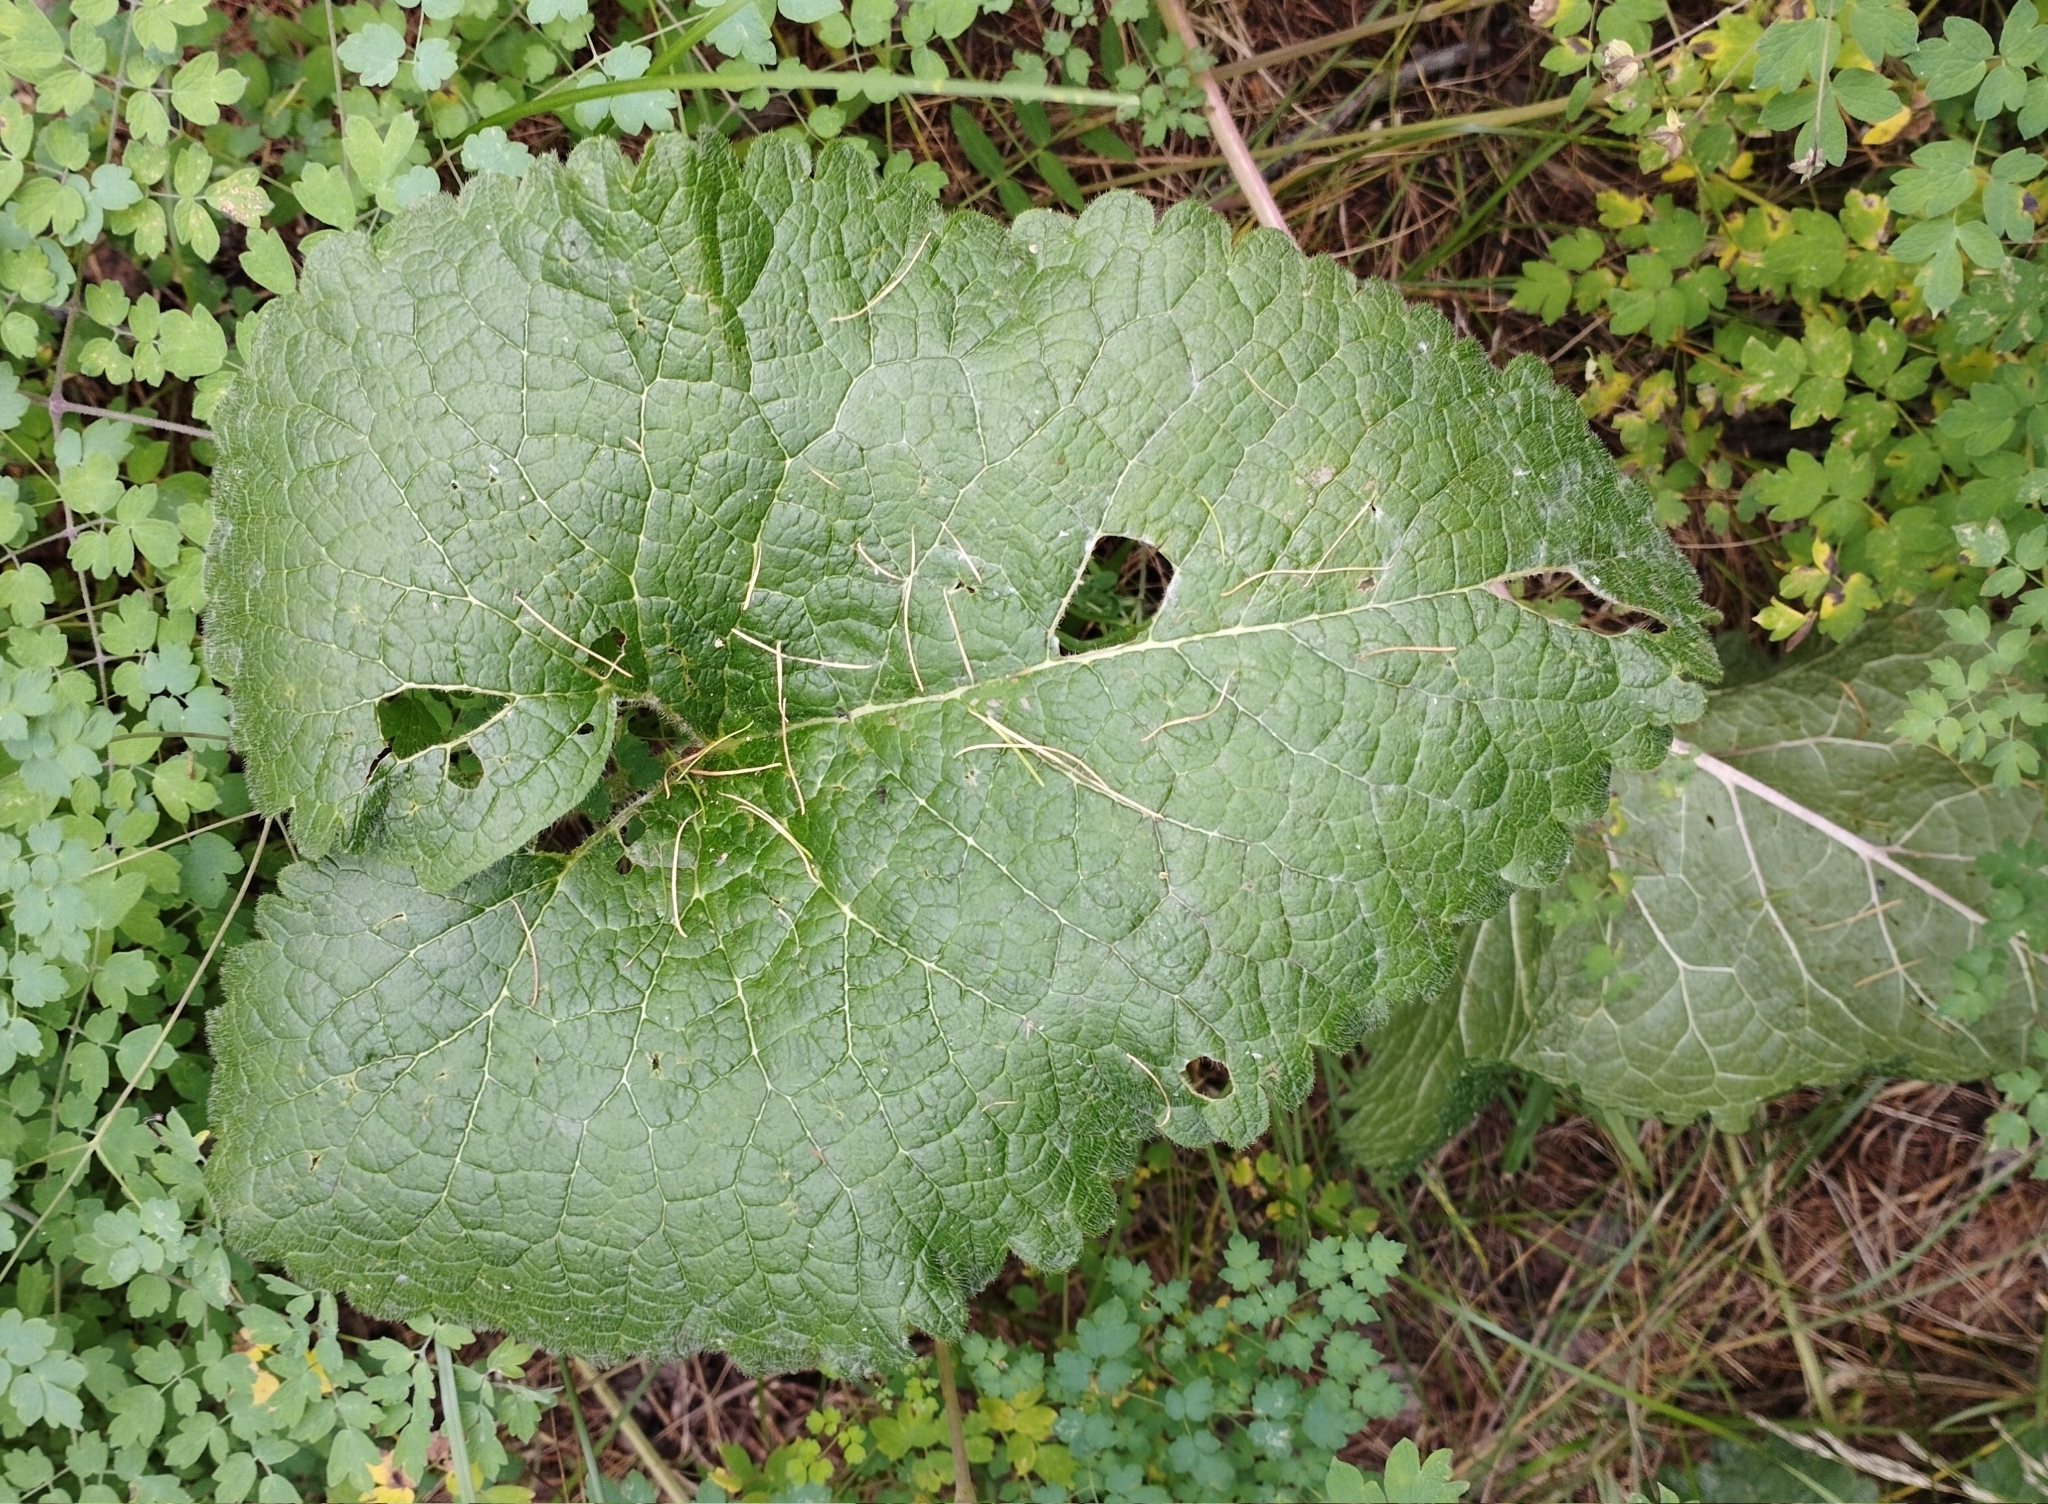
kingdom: Plantae
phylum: Tracheophyta
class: Magnoliopsida
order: Lamiales
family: Lamiaceae
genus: Phlomoides
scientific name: Phlomoides tuberosa
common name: Tuberous jerusalem sage
